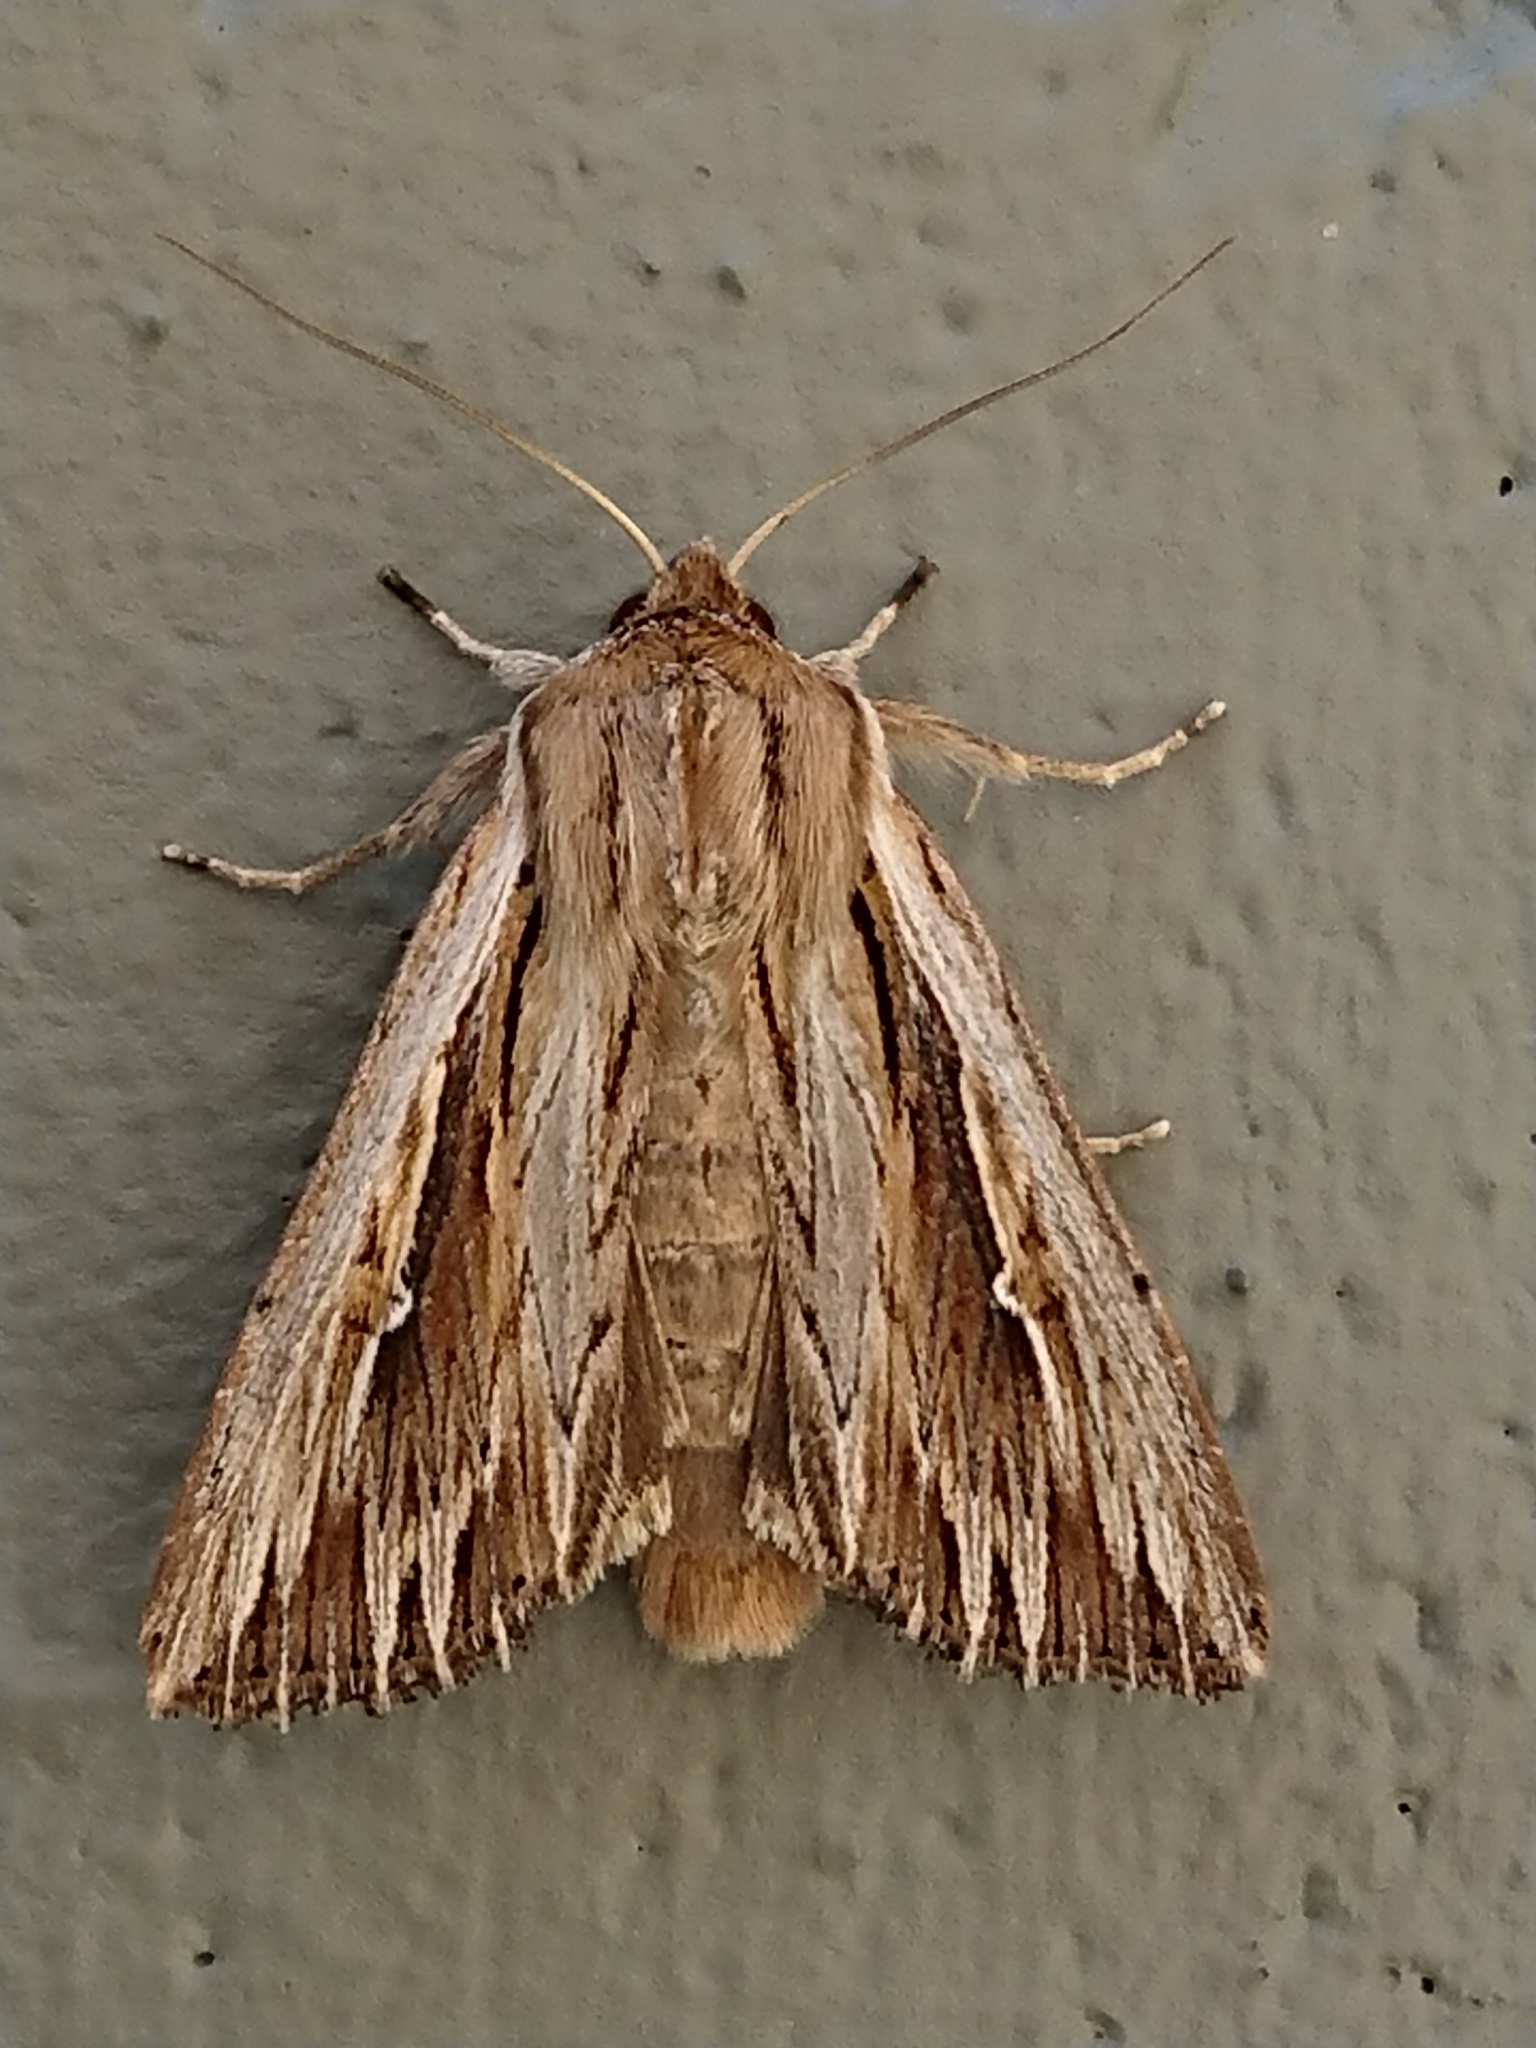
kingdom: Animalia
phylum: Arthropoda
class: Insecta
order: Lepidoptera
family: Noctuidae
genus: Persectania
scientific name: Persectania aversa
